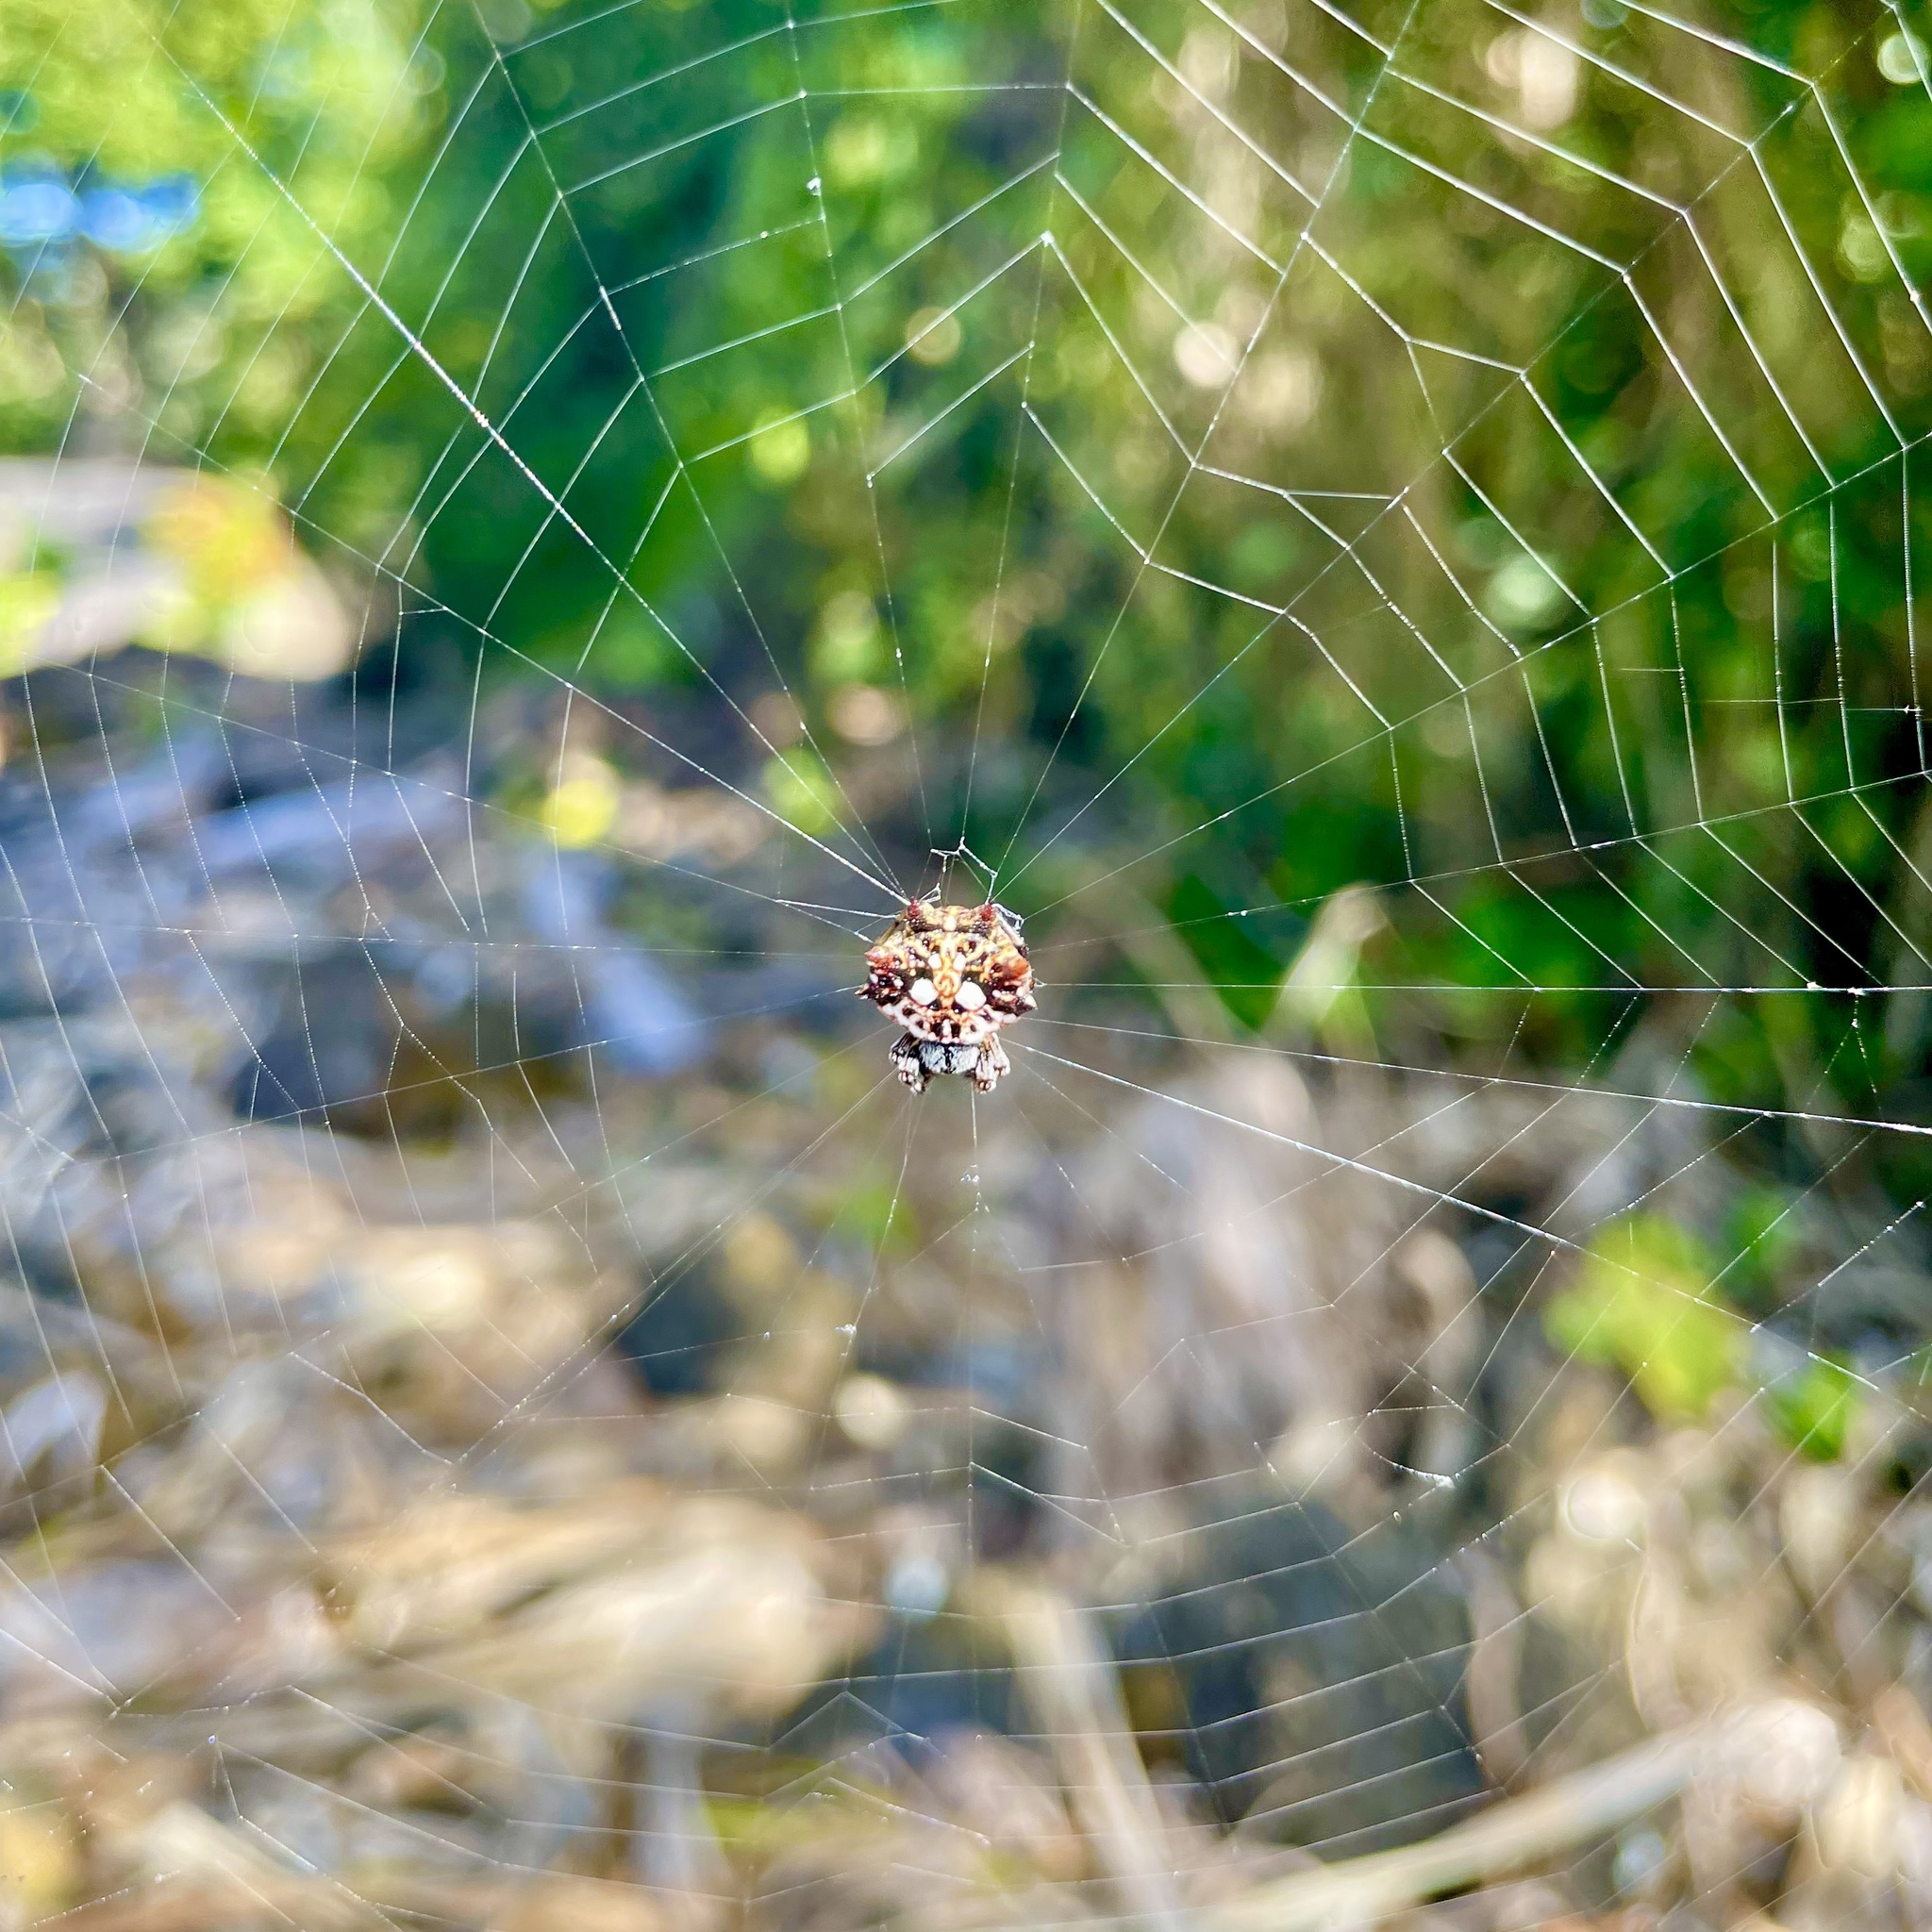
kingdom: Animalia
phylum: Arthropoda
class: Arachnida
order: Araneae
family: Araneidae
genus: Thelacantha
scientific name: Thelacantha brevispina
